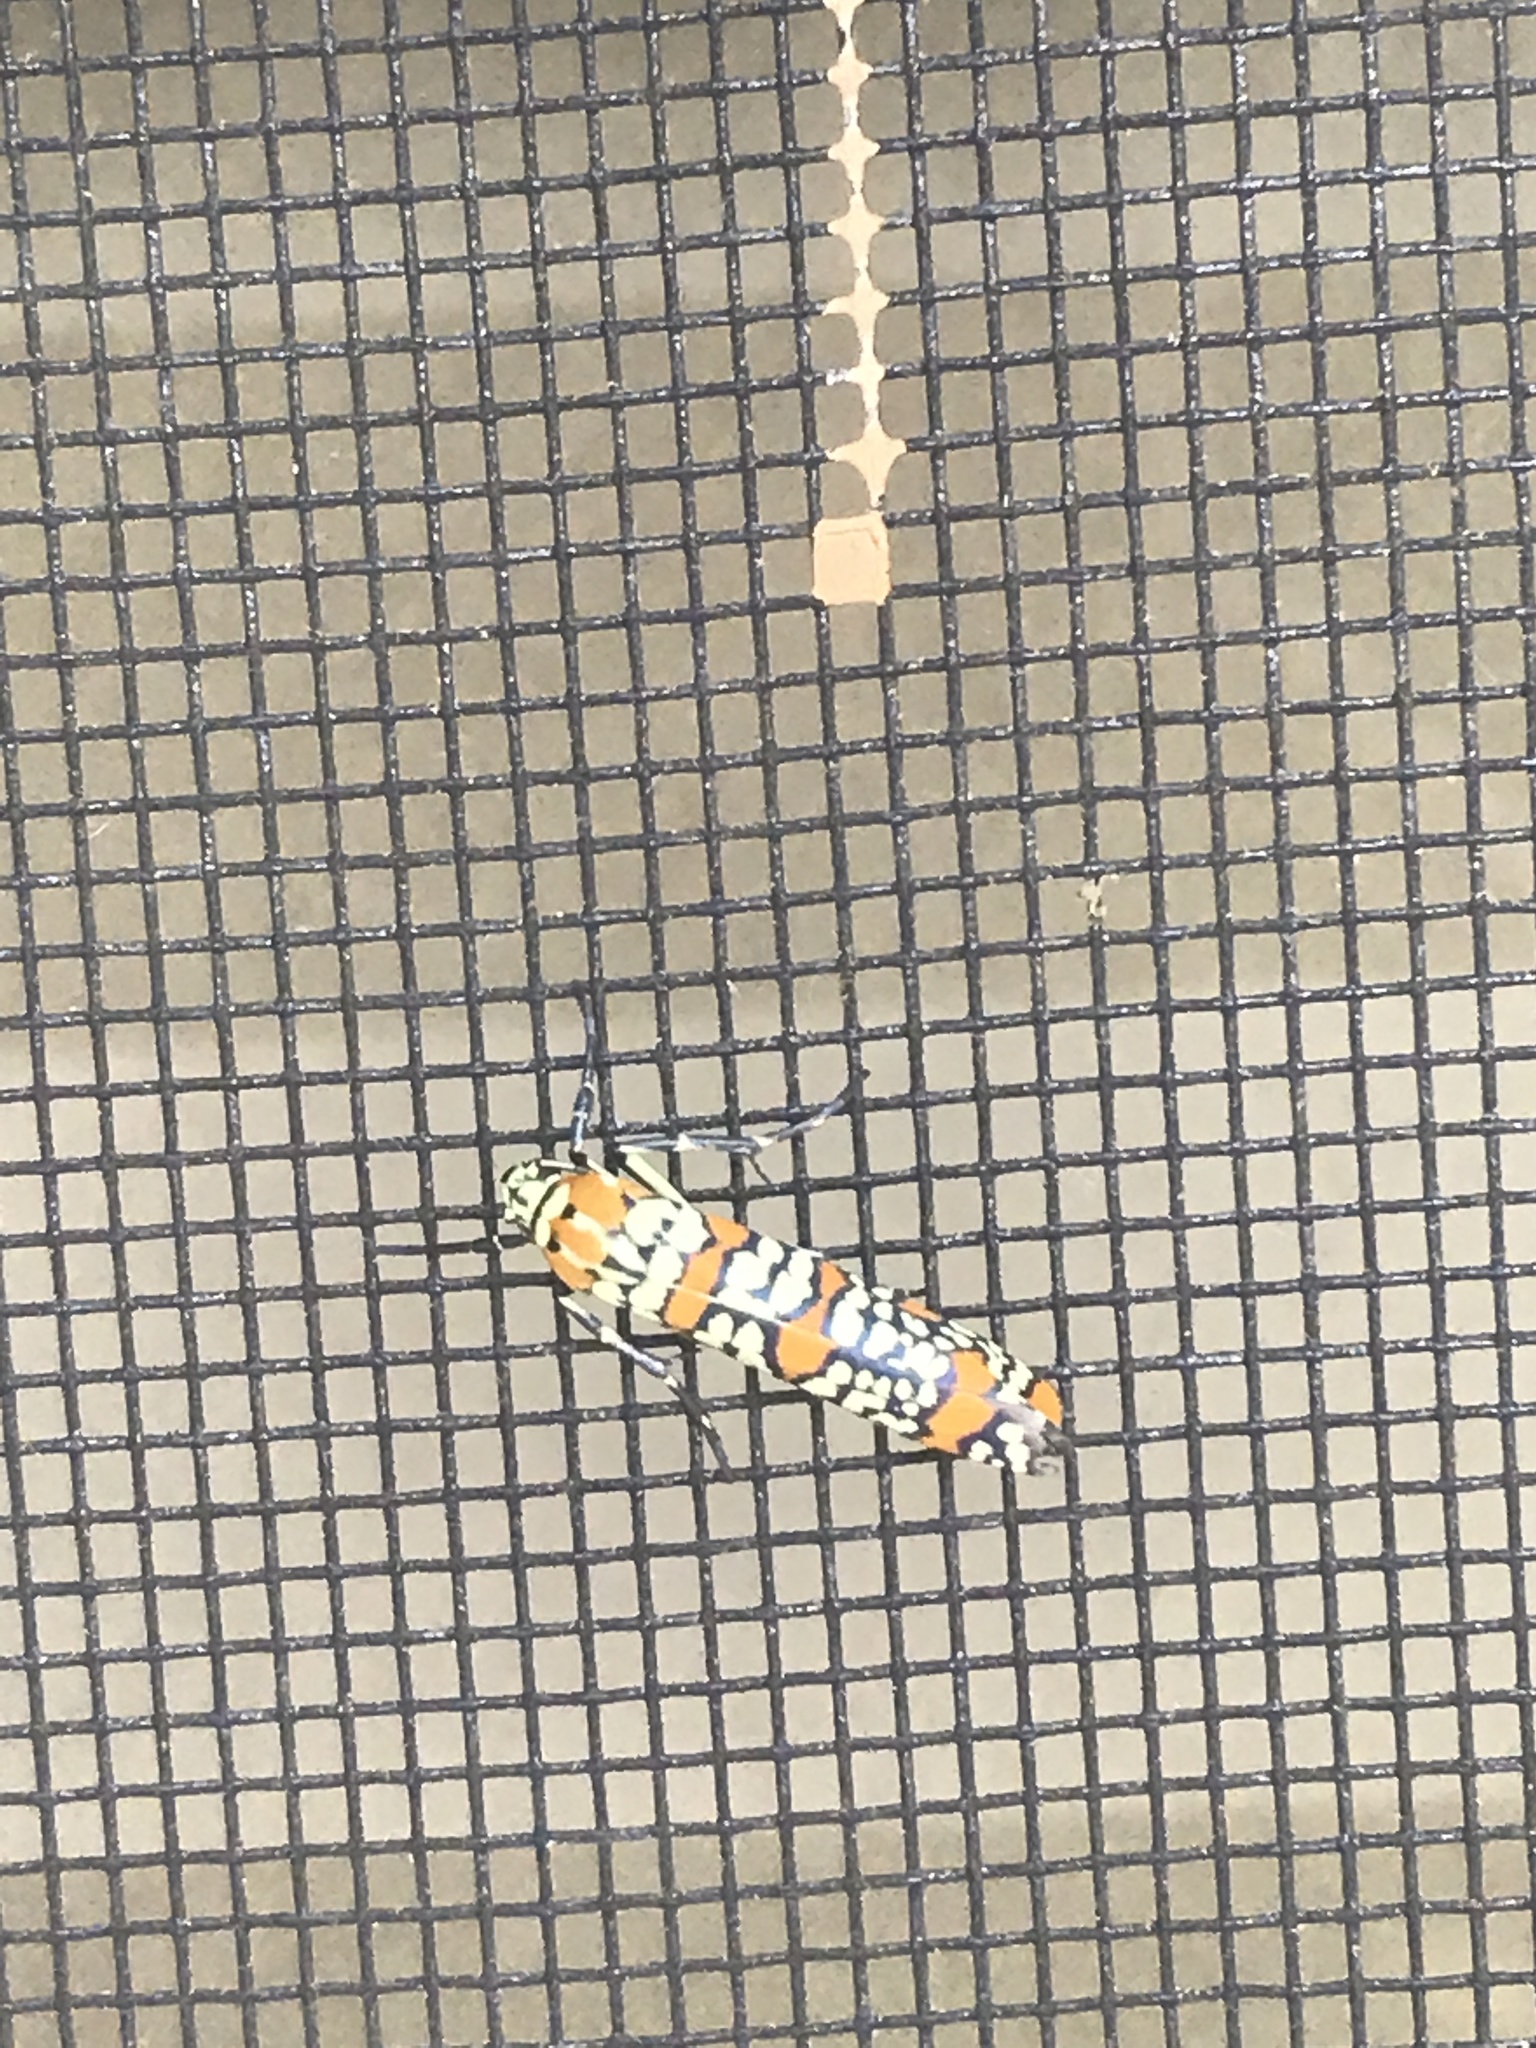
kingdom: Animalia
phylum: Arthropoda
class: Insecta
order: Lepidoptera
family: Attevidae
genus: Atteva
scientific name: Atteva punctella
